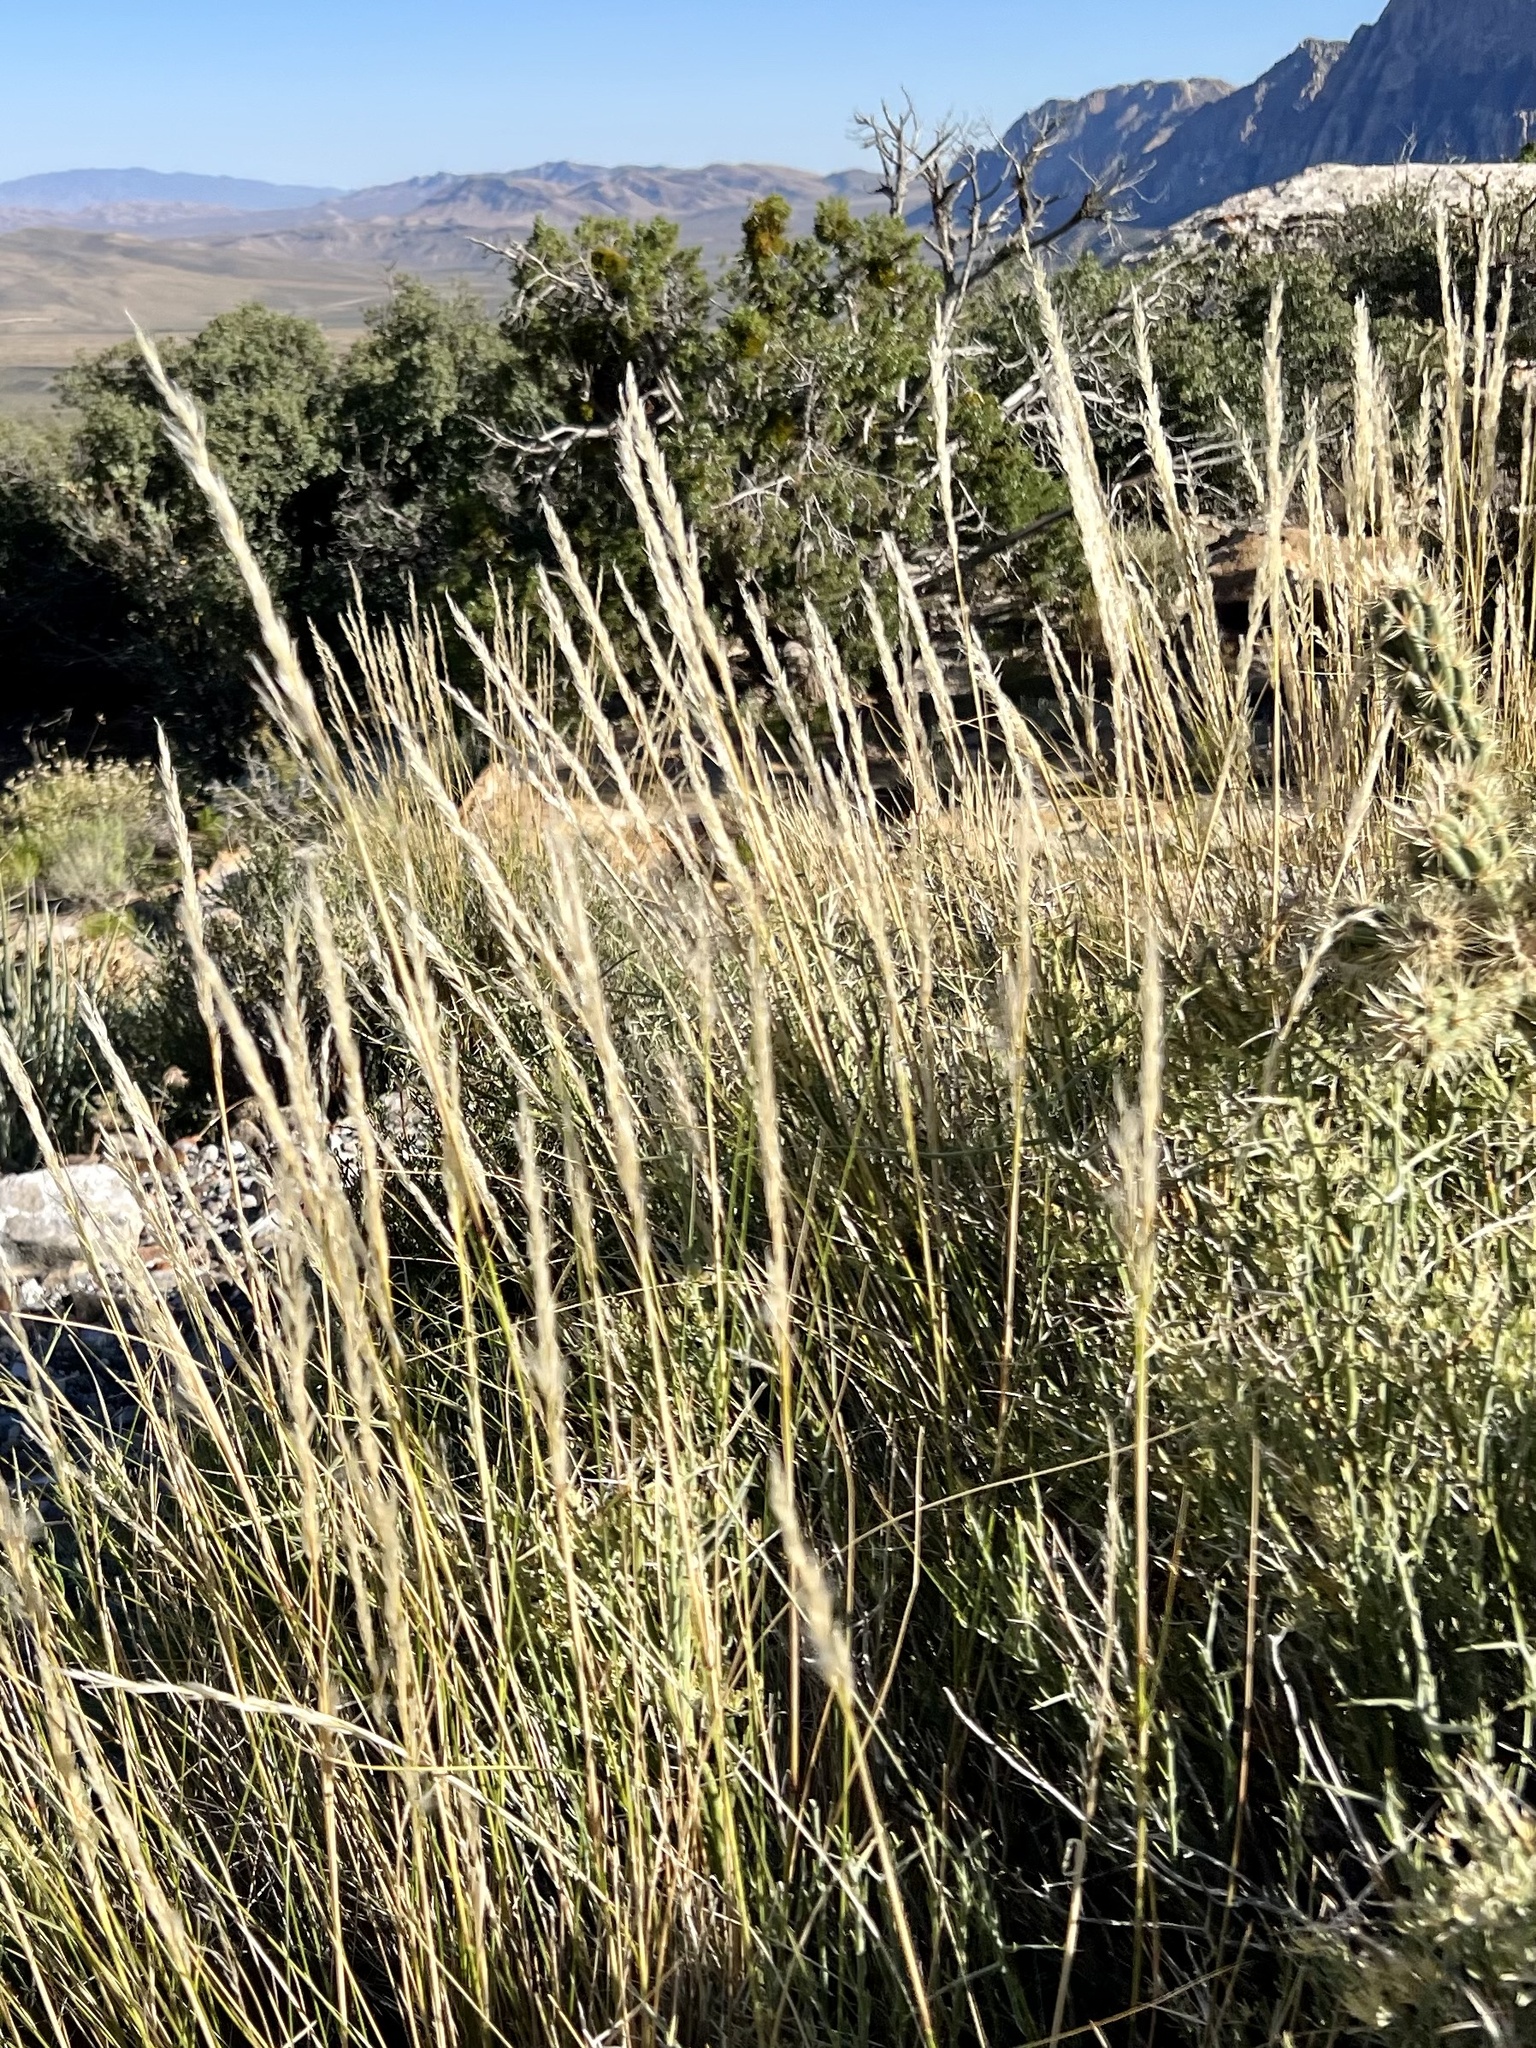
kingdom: Plantae
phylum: Tracheophyta
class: Liliopsida
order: Poales
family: Poaceae
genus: Pappostipa
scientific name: Pappostipa speciosa
